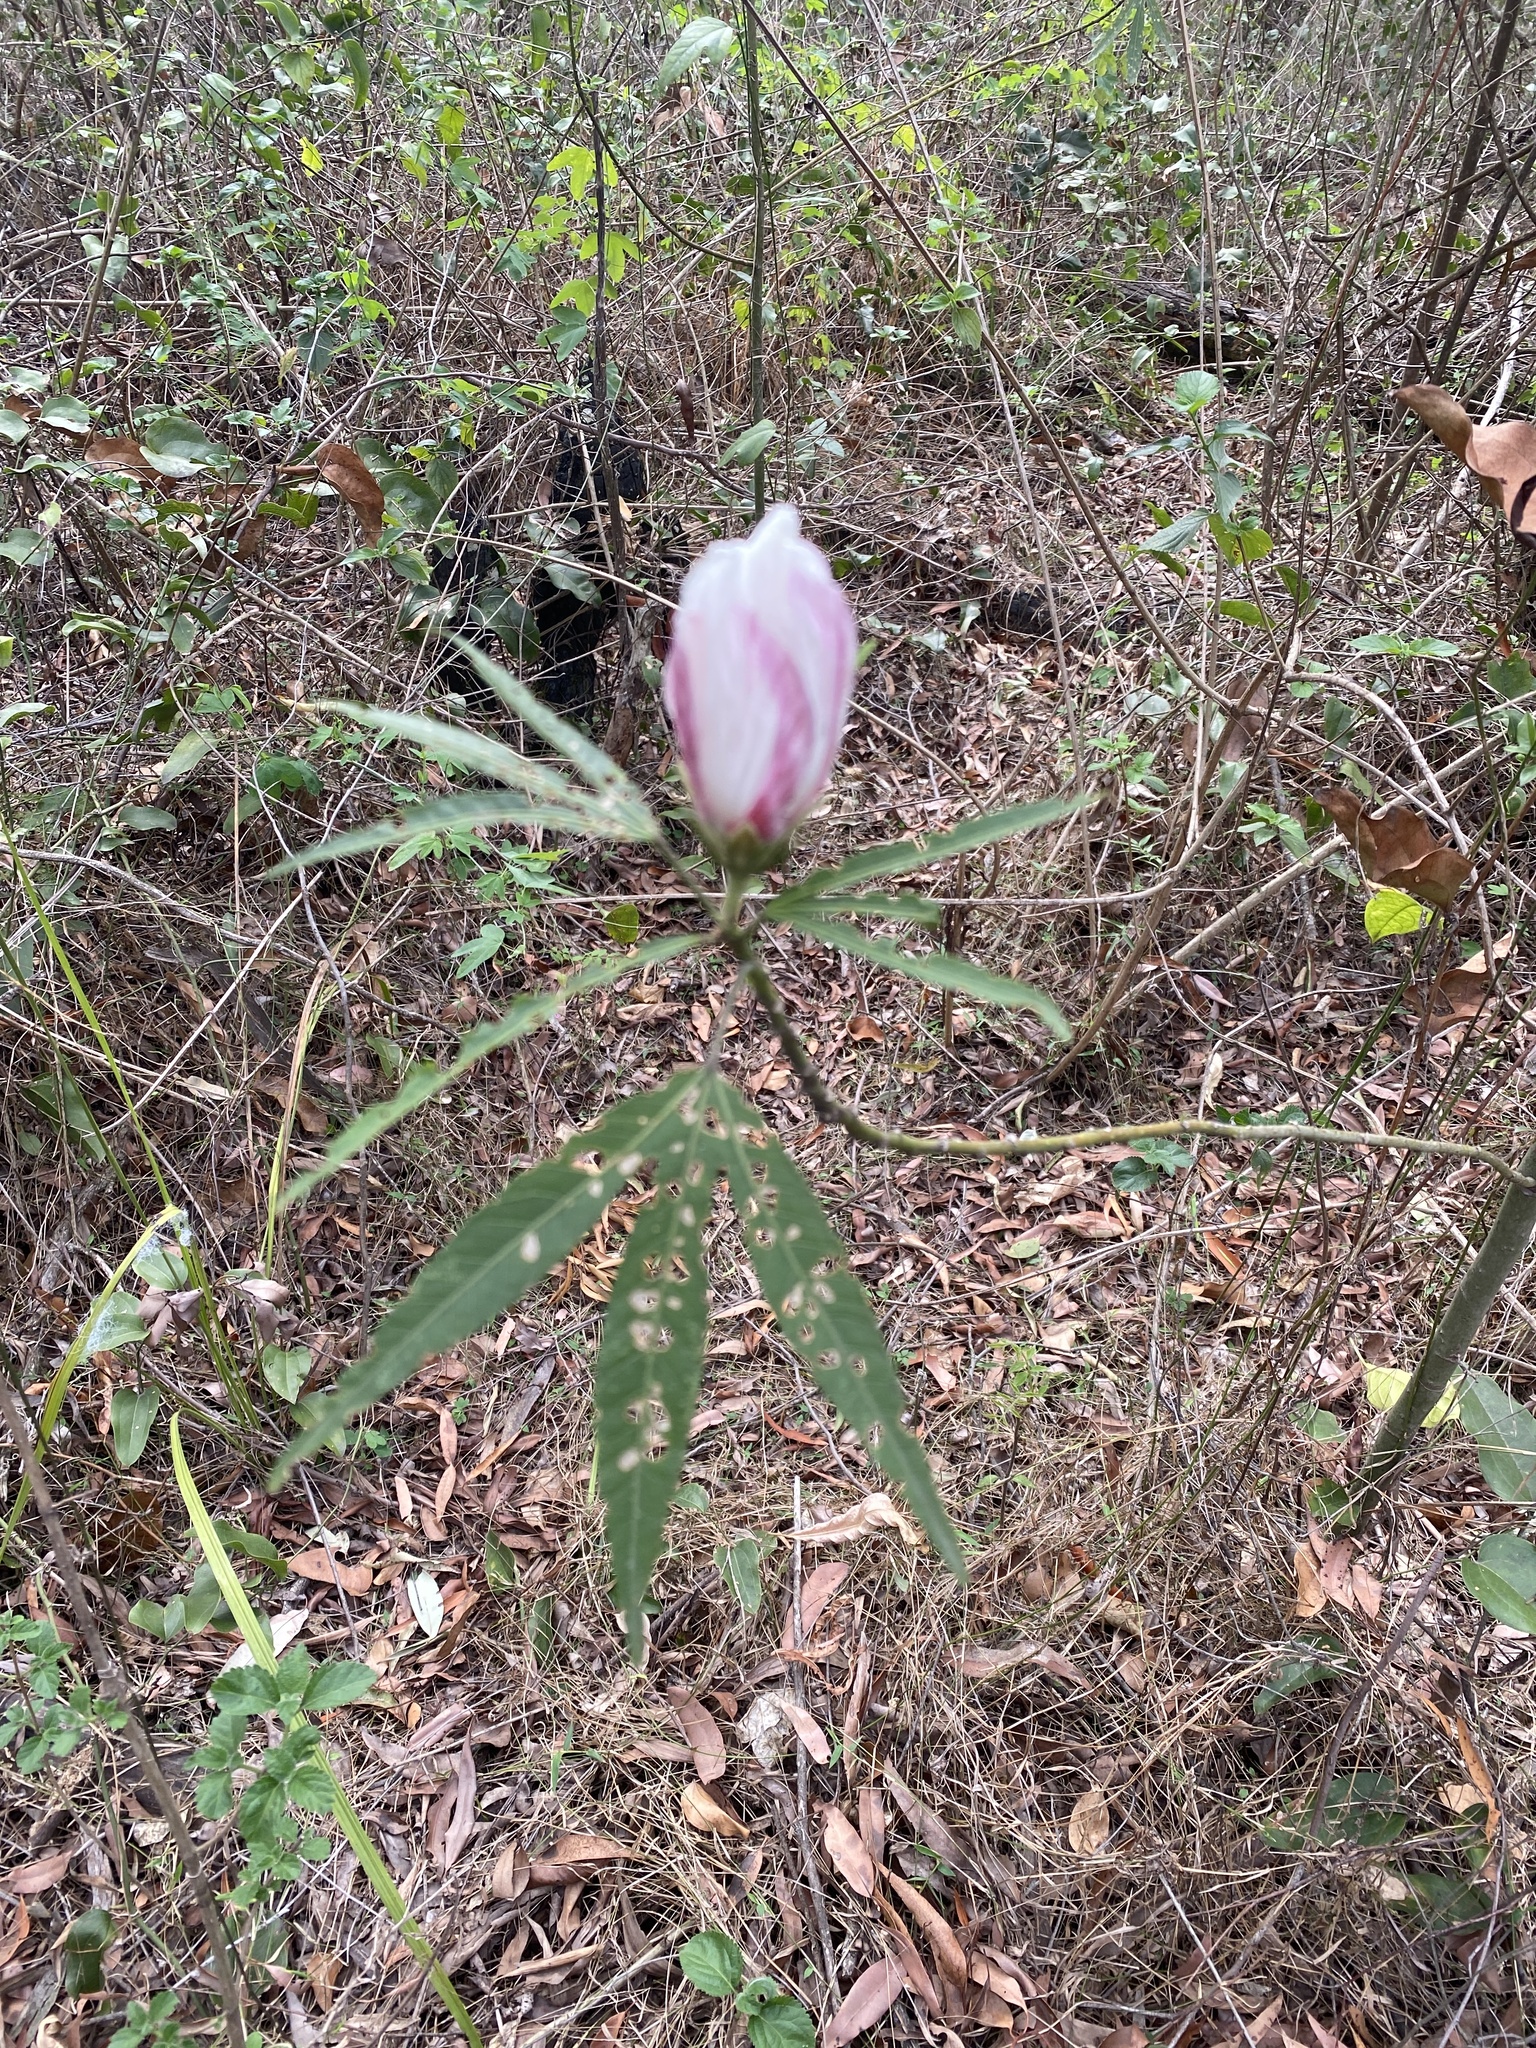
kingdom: Plantae
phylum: Tracheophyta
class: Magnoliopsida
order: Malvales
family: Malvaceae
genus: Hibiscus
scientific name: Hibiscus heterophyllus
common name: Queensland-sorrel
